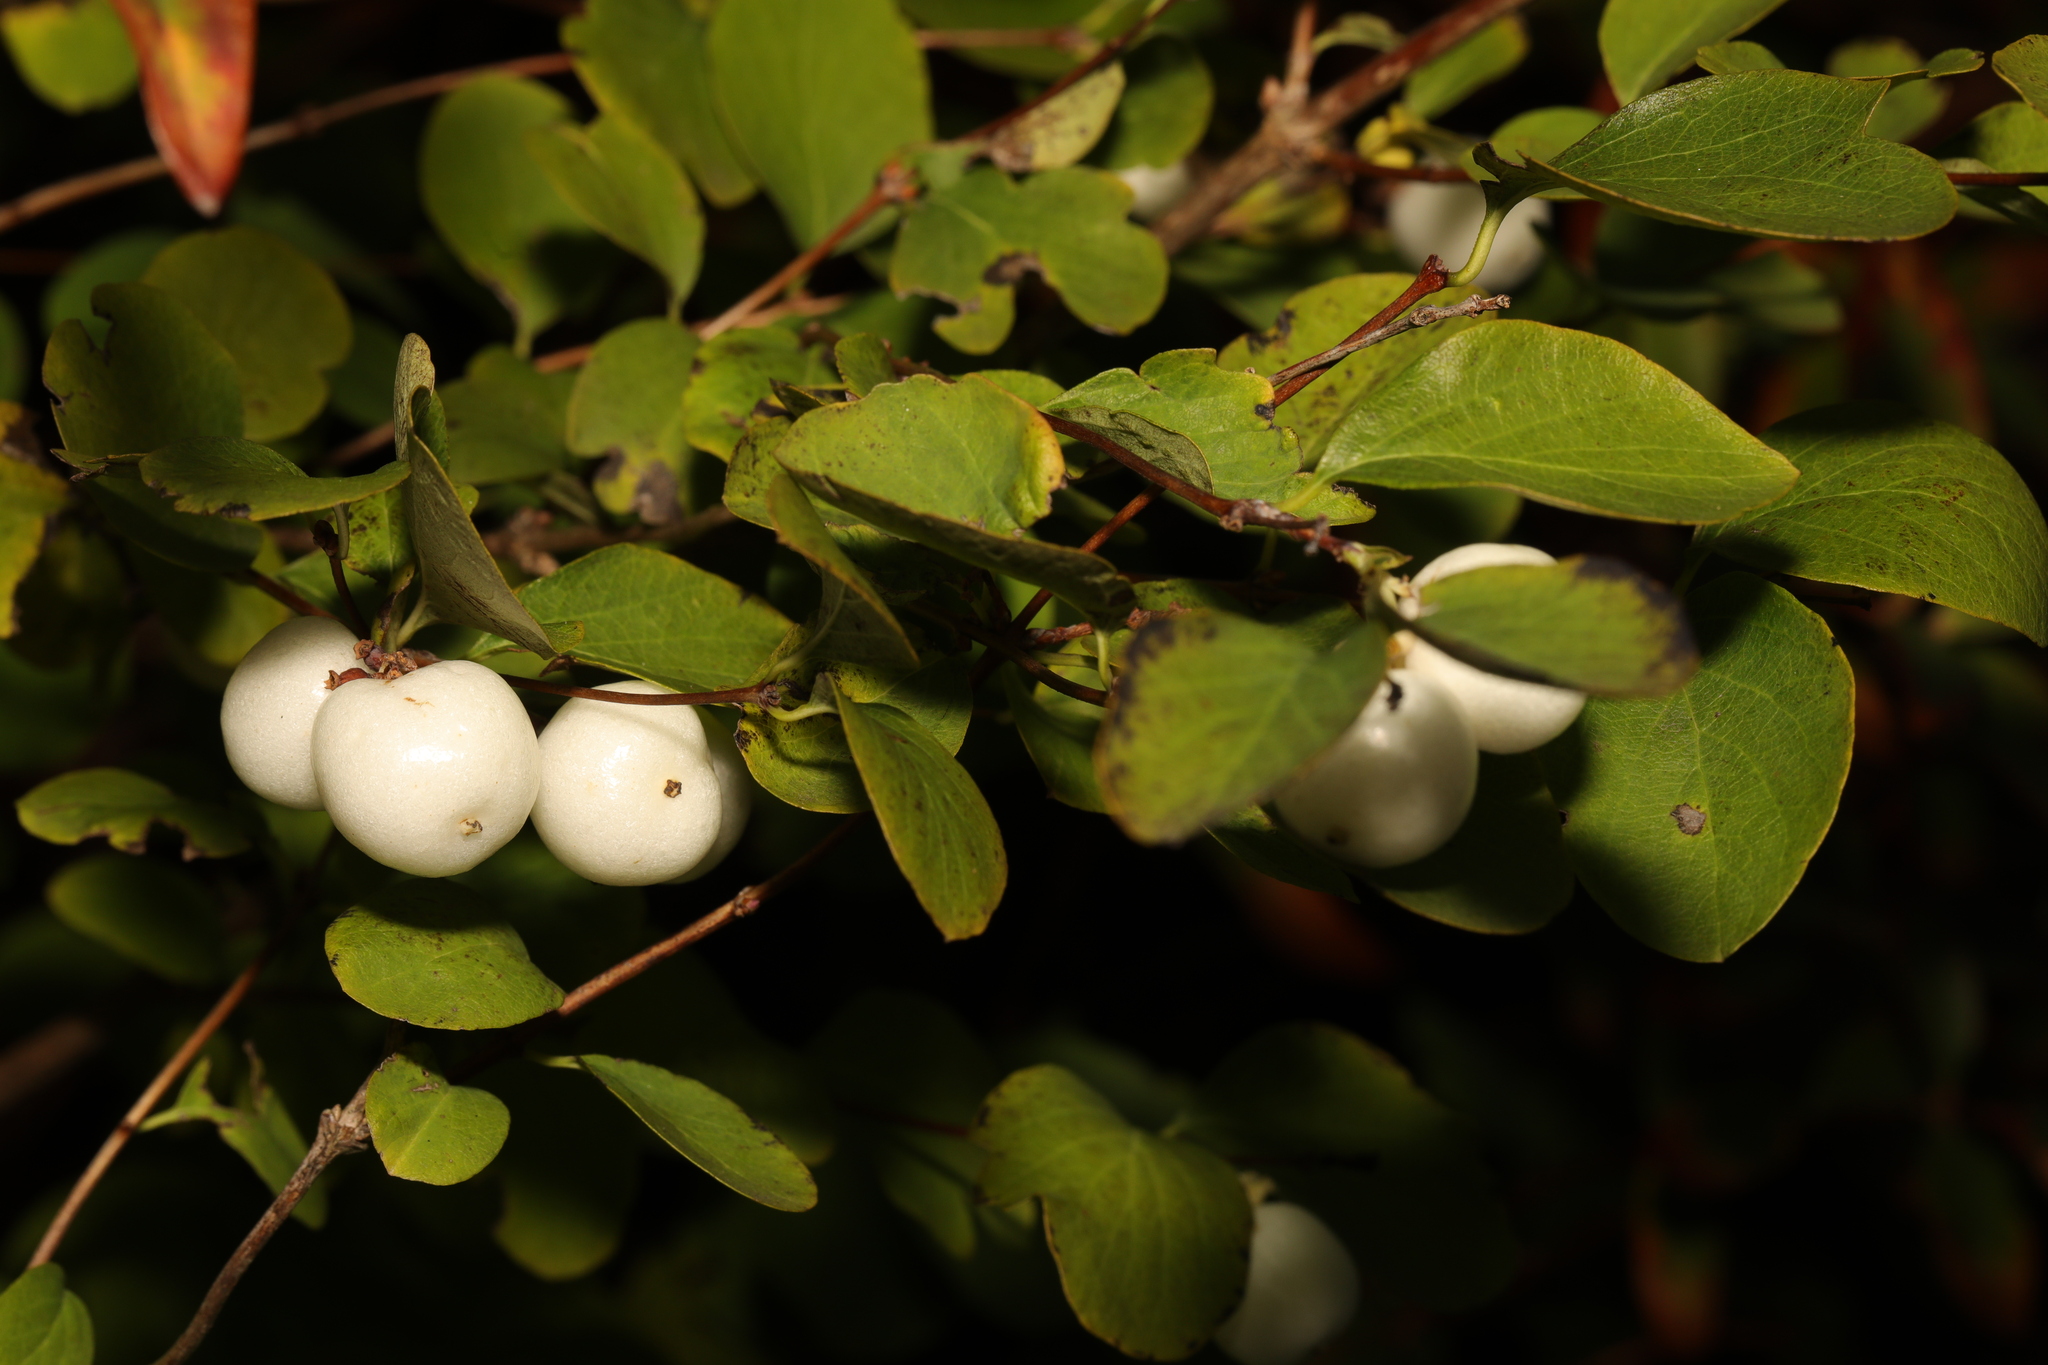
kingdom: Plantae
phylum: Tracheophyta
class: Magnoliopsida
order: Dipsacales
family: Caprifoliaceae
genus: Symphoricarpos
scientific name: Symphoricarpos albus
